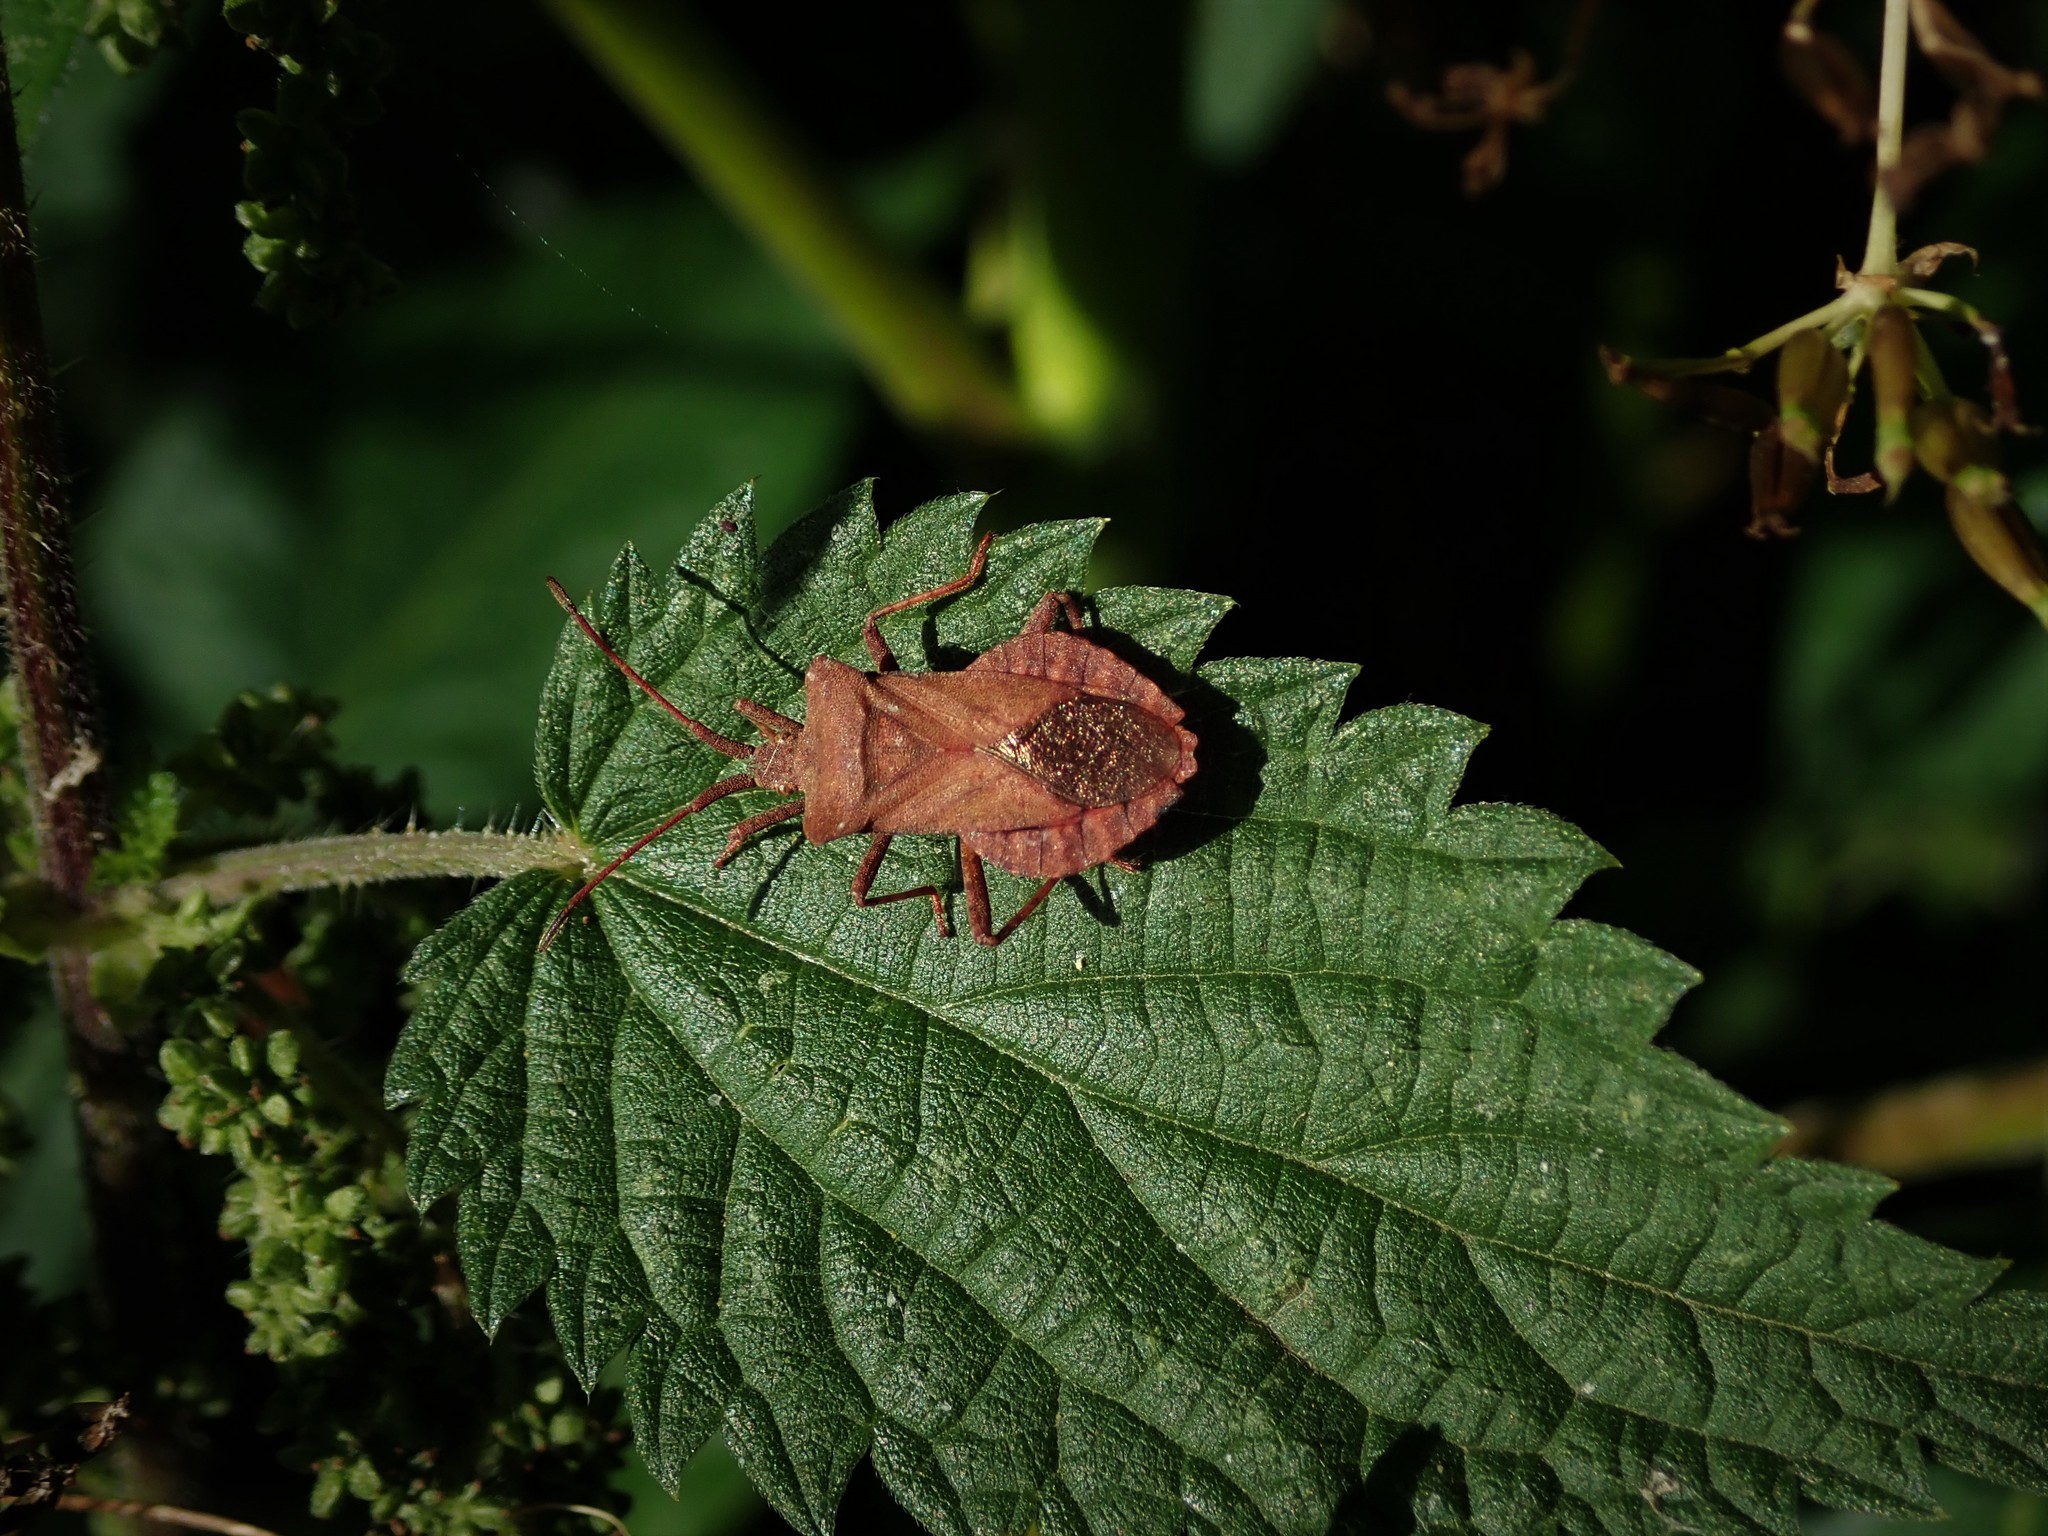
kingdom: Animalia
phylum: Arthropoda
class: Insecta
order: Hemiptera
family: Coreidae
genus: Coreus
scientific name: Coreus marginatus
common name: Dock bug
